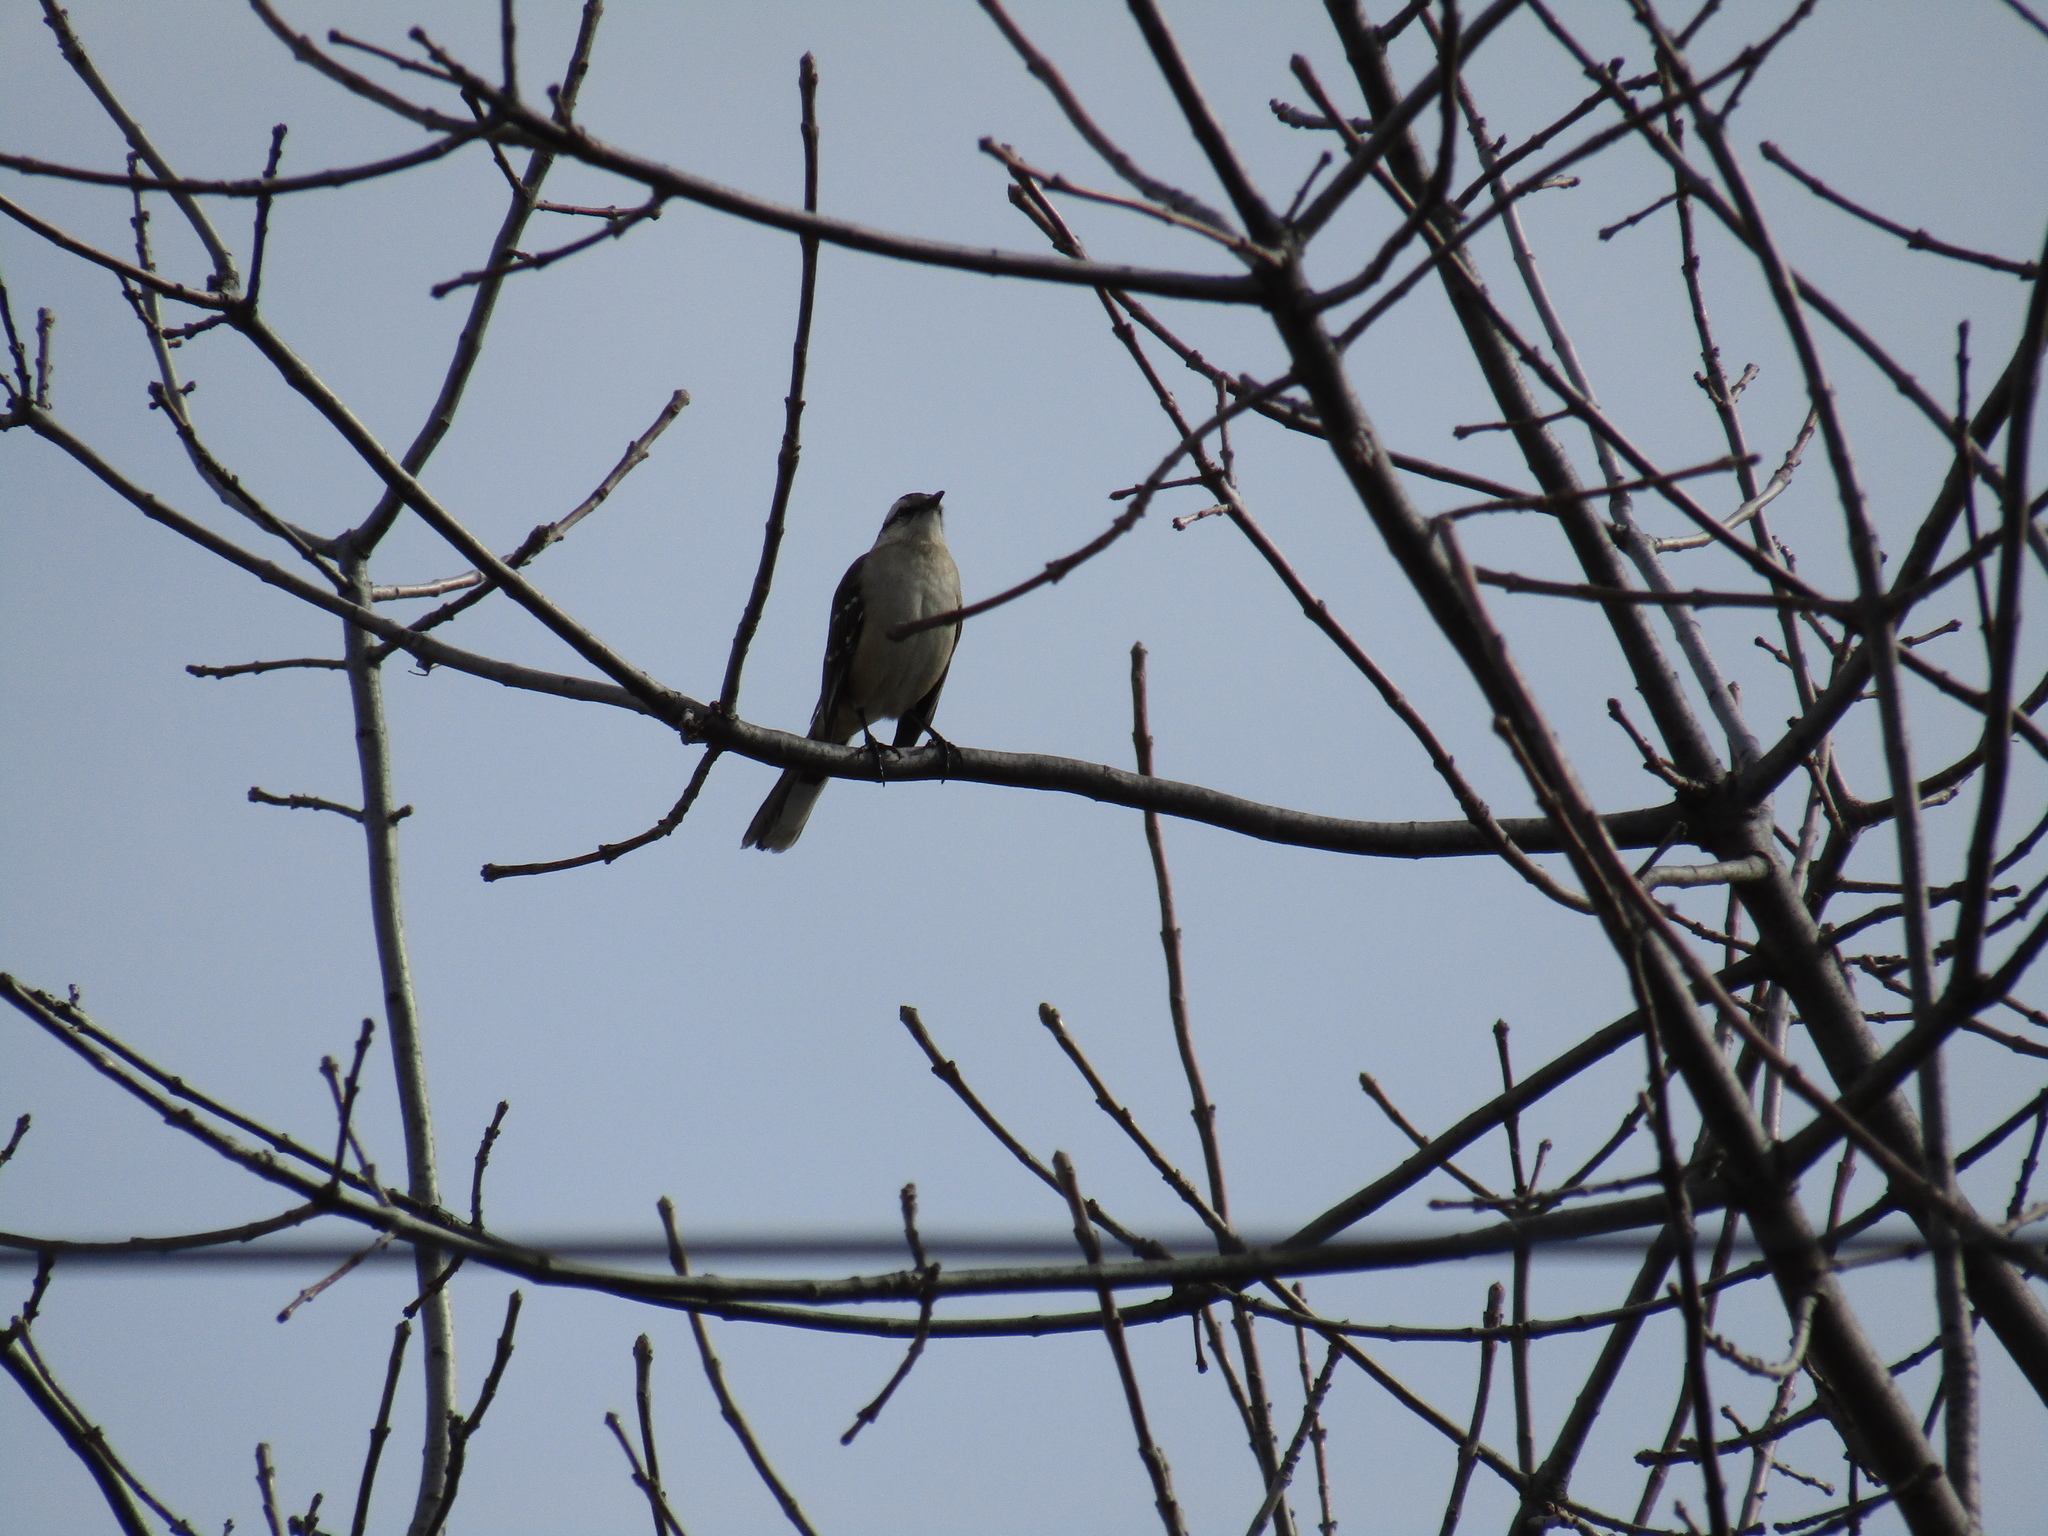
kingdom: Animalia
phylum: Chordata
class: Aves
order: Passeriformes
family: Mimidae
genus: Mimus
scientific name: Mimus saturninus
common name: Chalk-browed mockingbird
